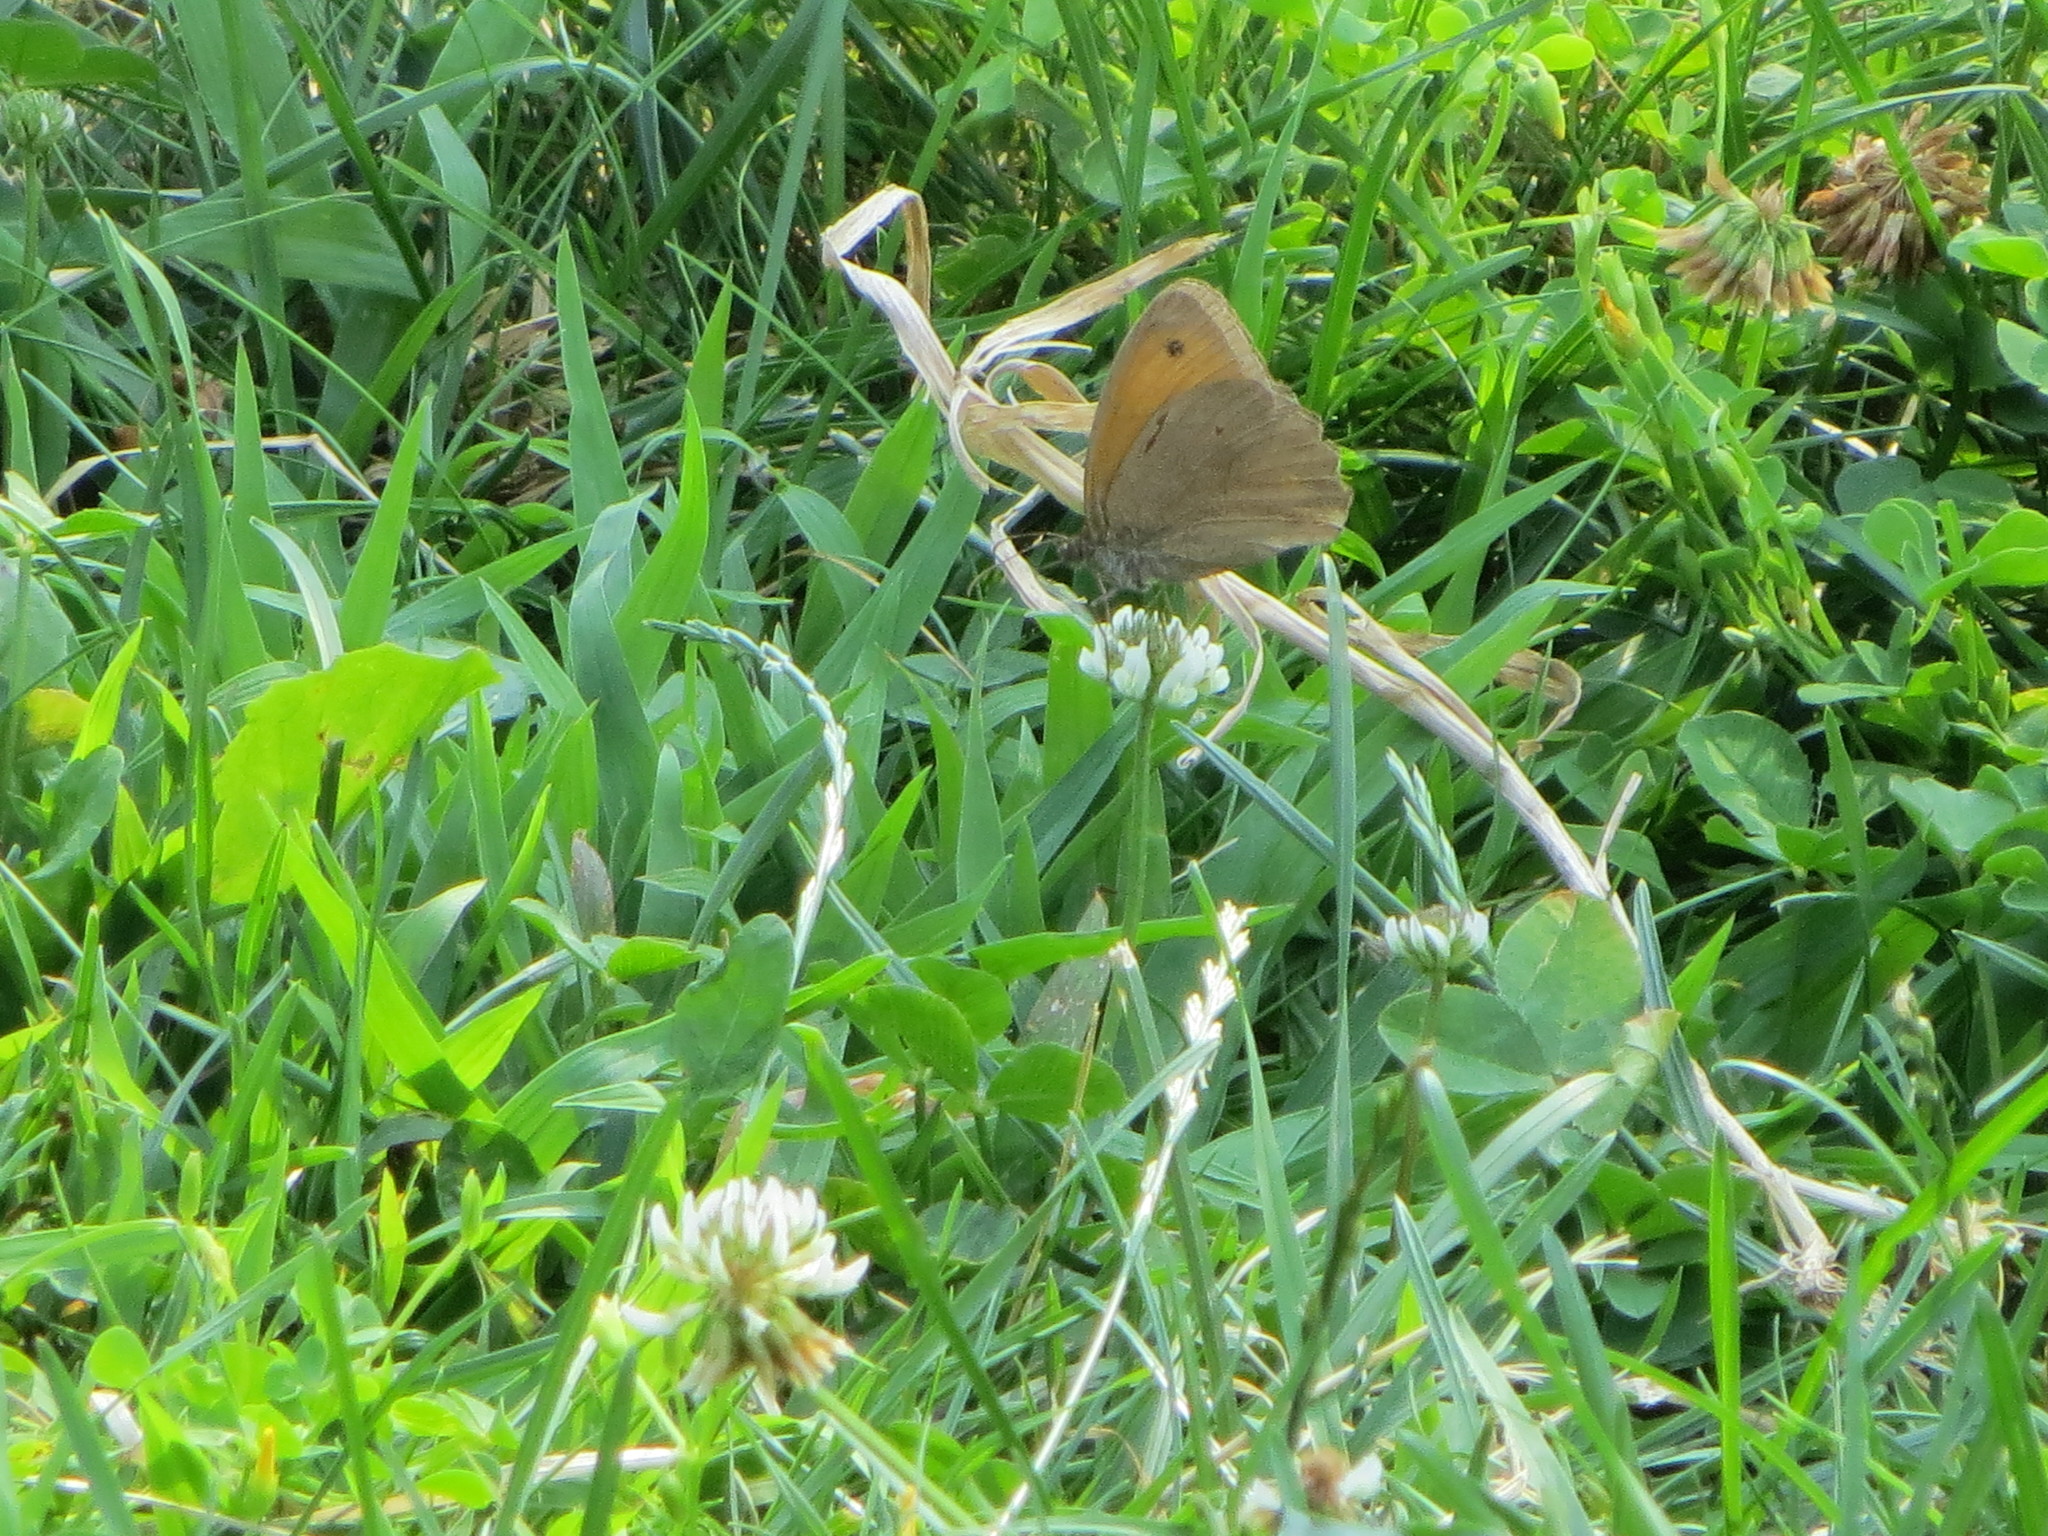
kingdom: Animalia
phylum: Arthropoda
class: Insecta
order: Lepidoptera
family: Nymphalidae
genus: Maniola
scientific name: Maniola jurtina
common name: Meadow brown
